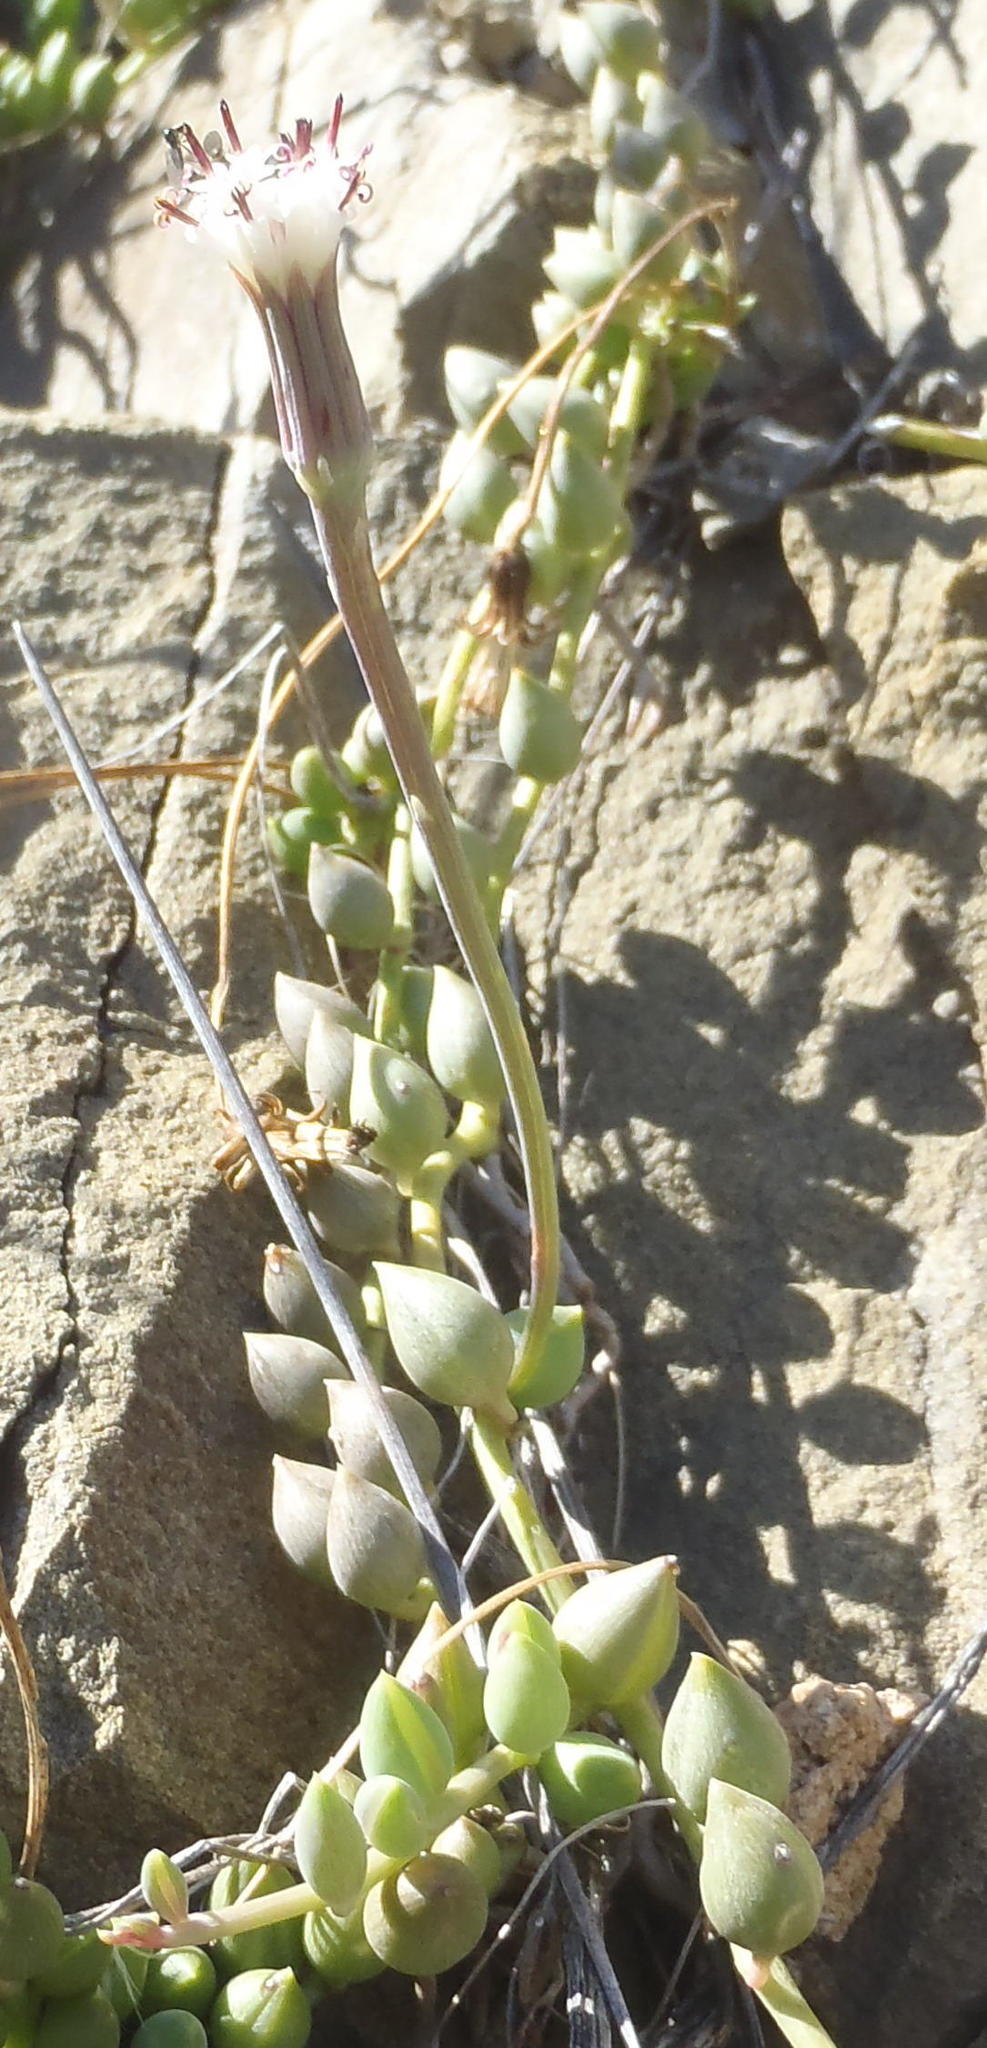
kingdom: Plantae
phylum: Tracheophyta
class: Magnoliopsida
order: Asterales
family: Asteraceae
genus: Curio
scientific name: Curio radicans
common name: Creeping-berry
